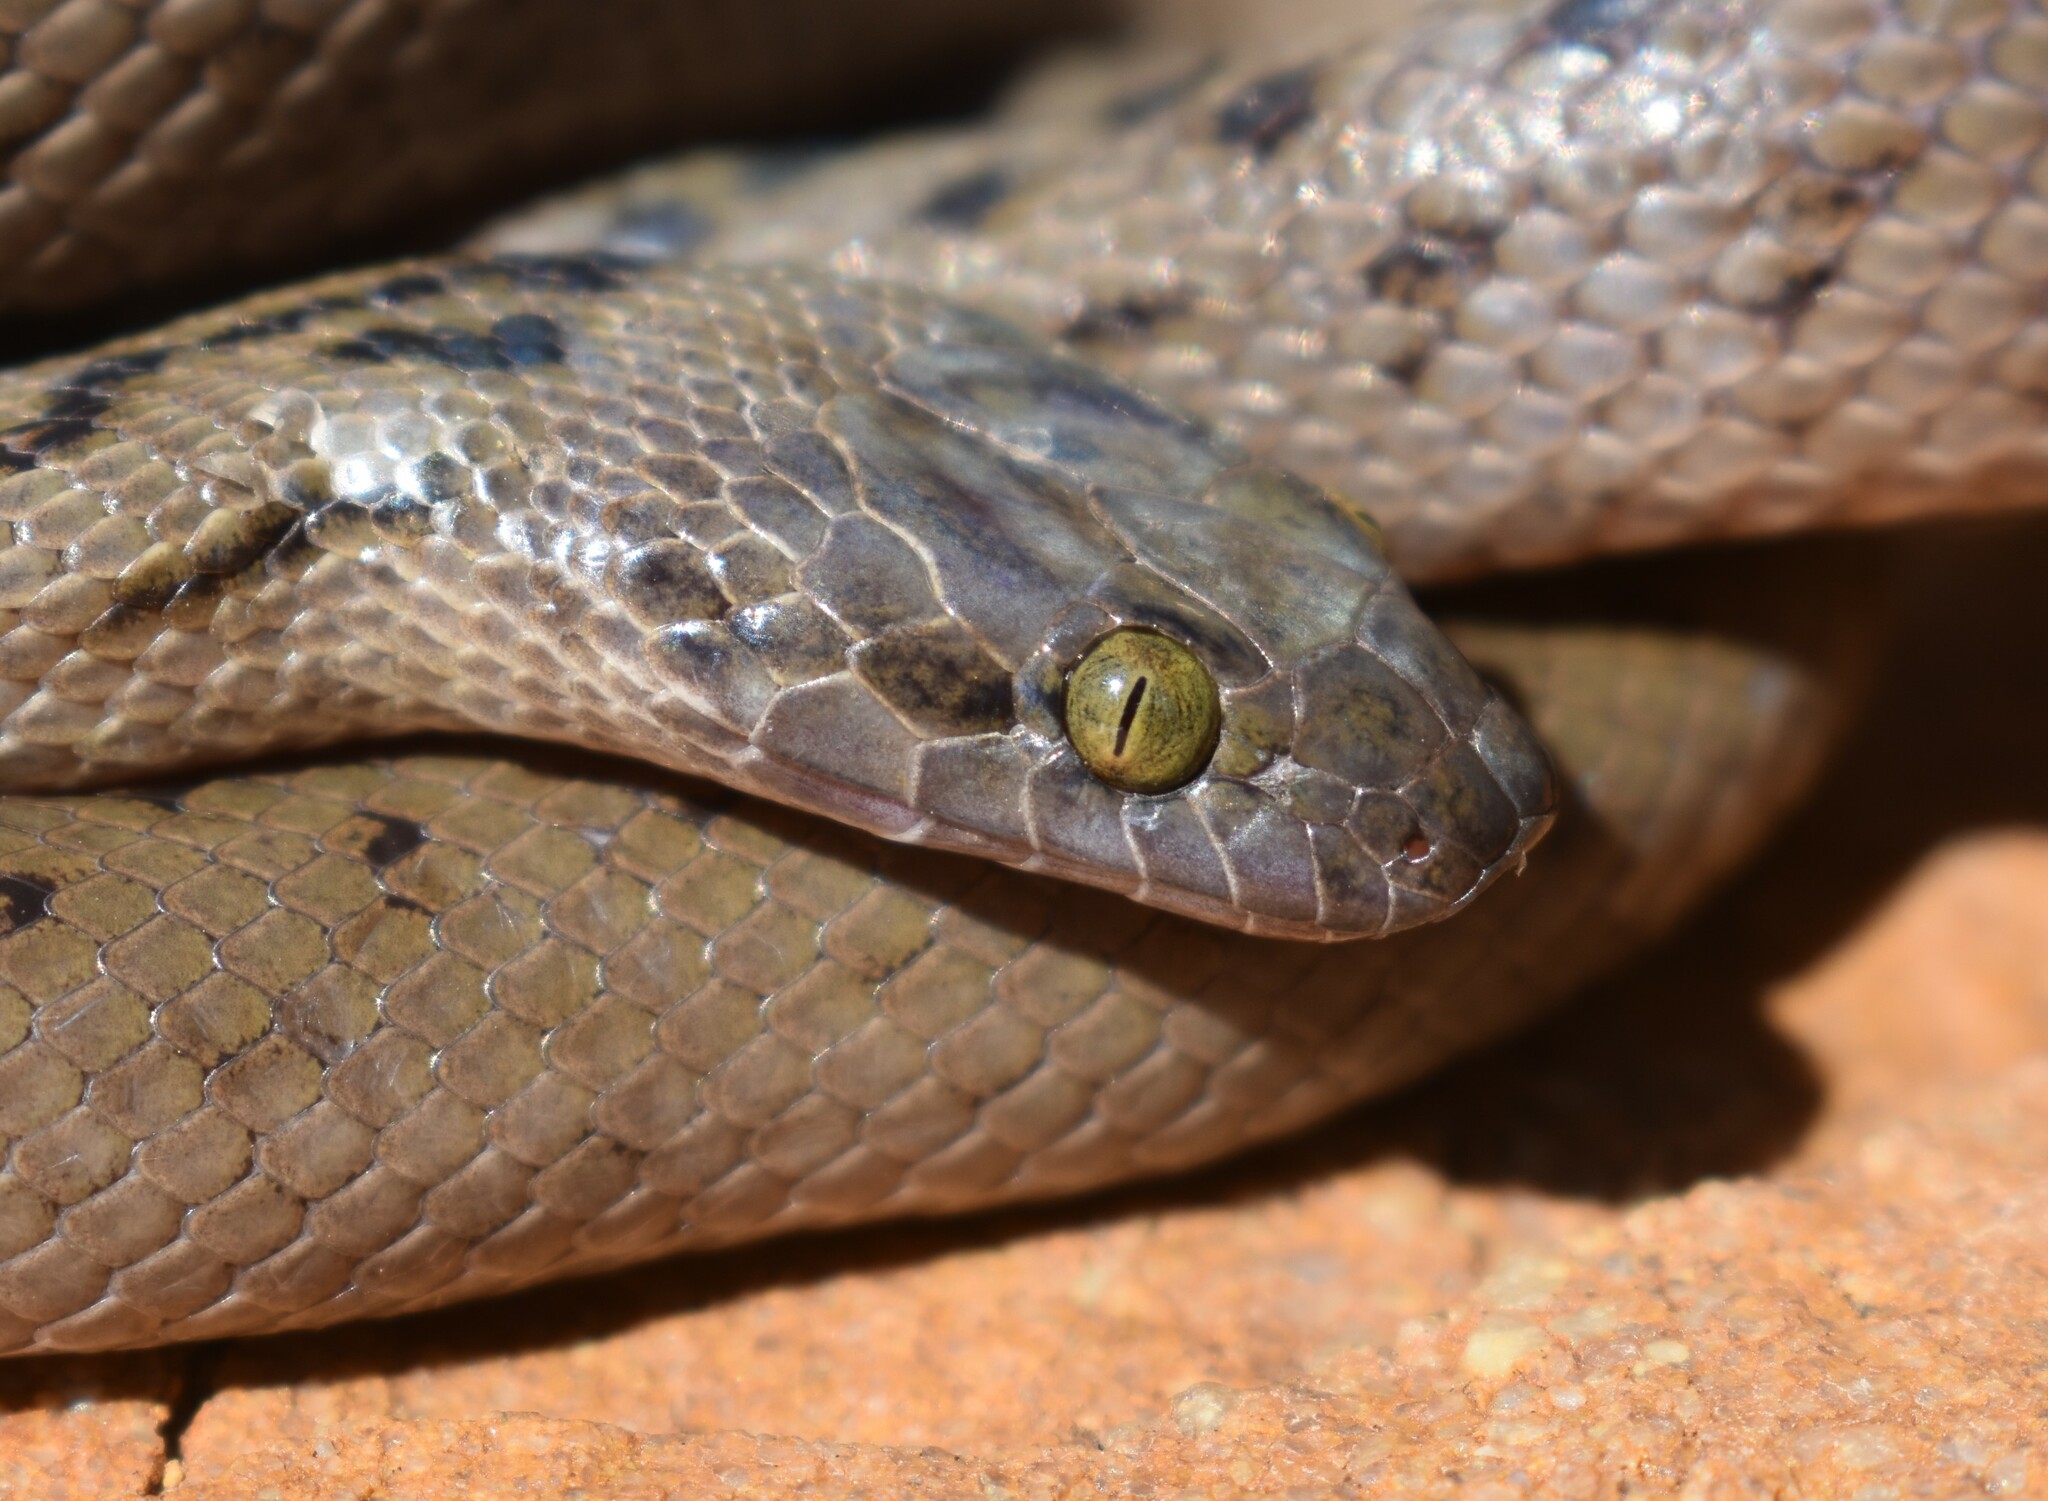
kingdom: Animalia
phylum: Chordata
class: Squamata
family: Lamprophiidae
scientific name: Lamprophiidae
